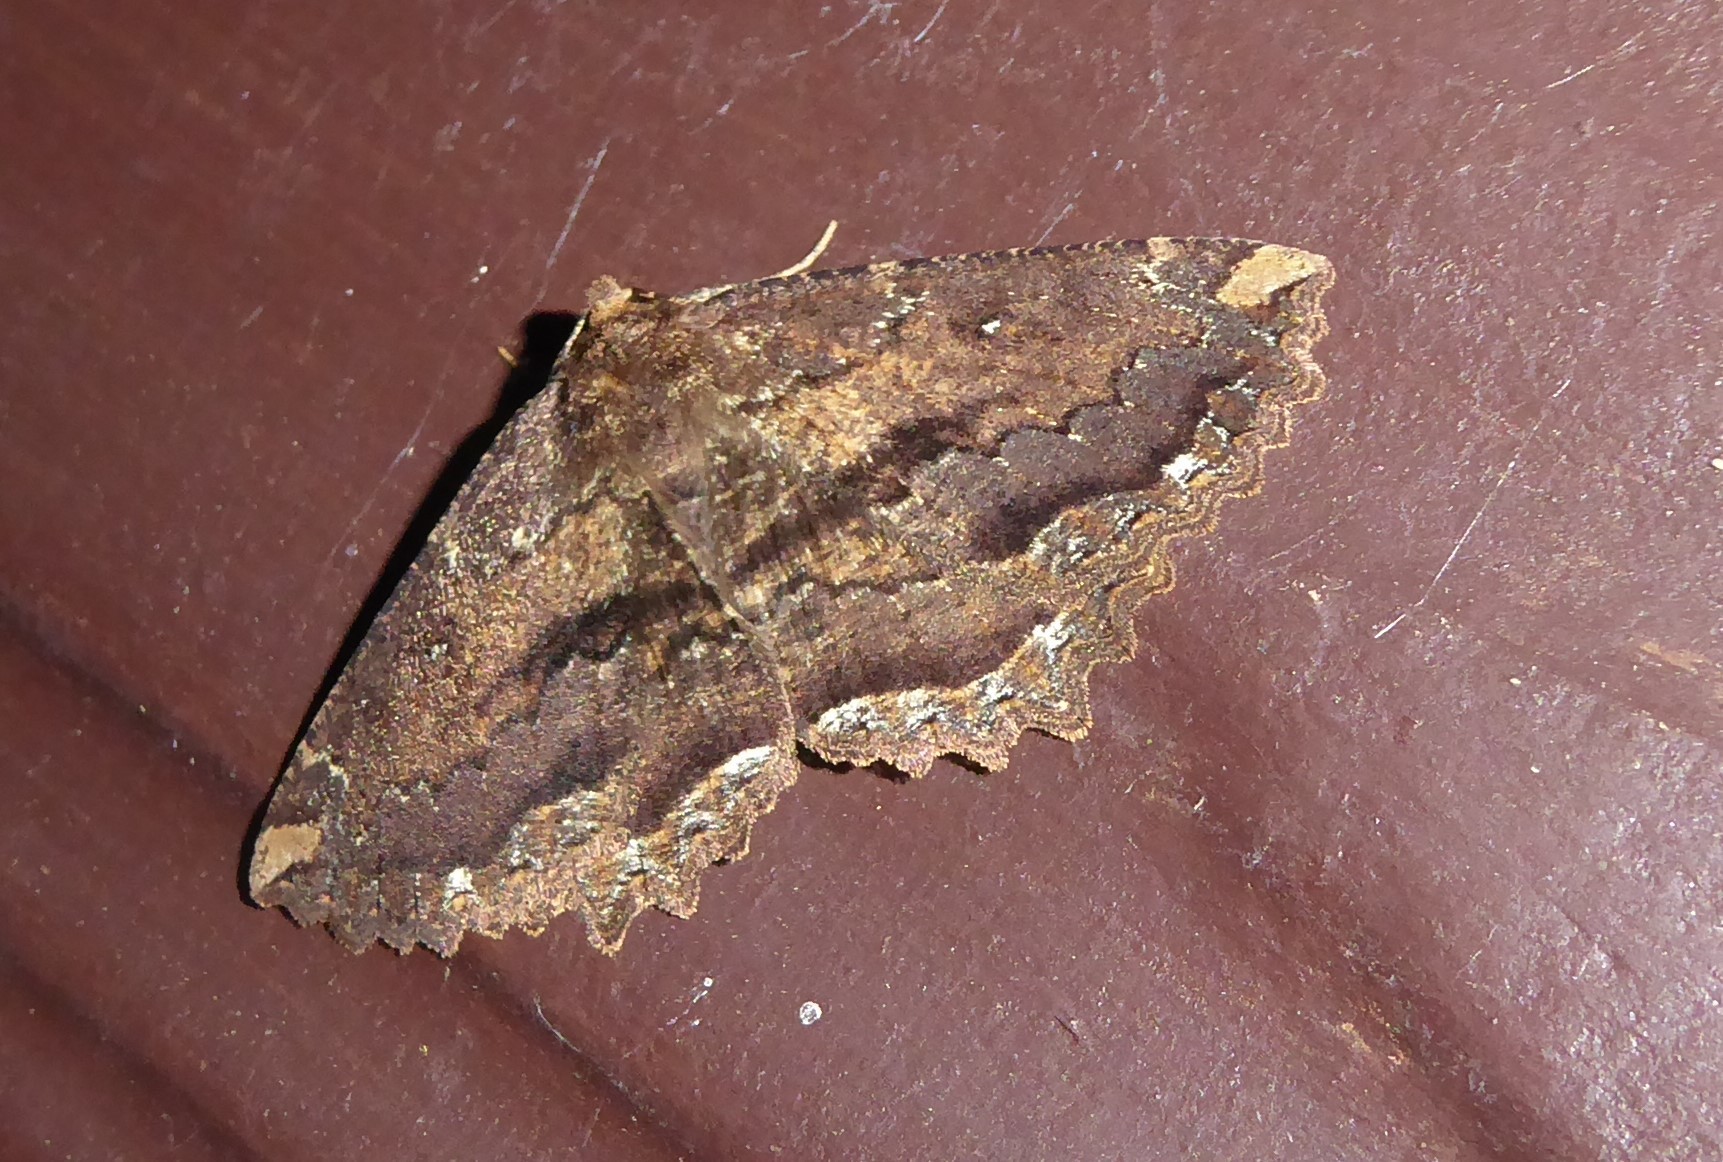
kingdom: Animalia
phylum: Arthropoda
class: Insecta
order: Lepidoptera
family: Geometridae
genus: Gellonia
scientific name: Gellonia dejectaria
